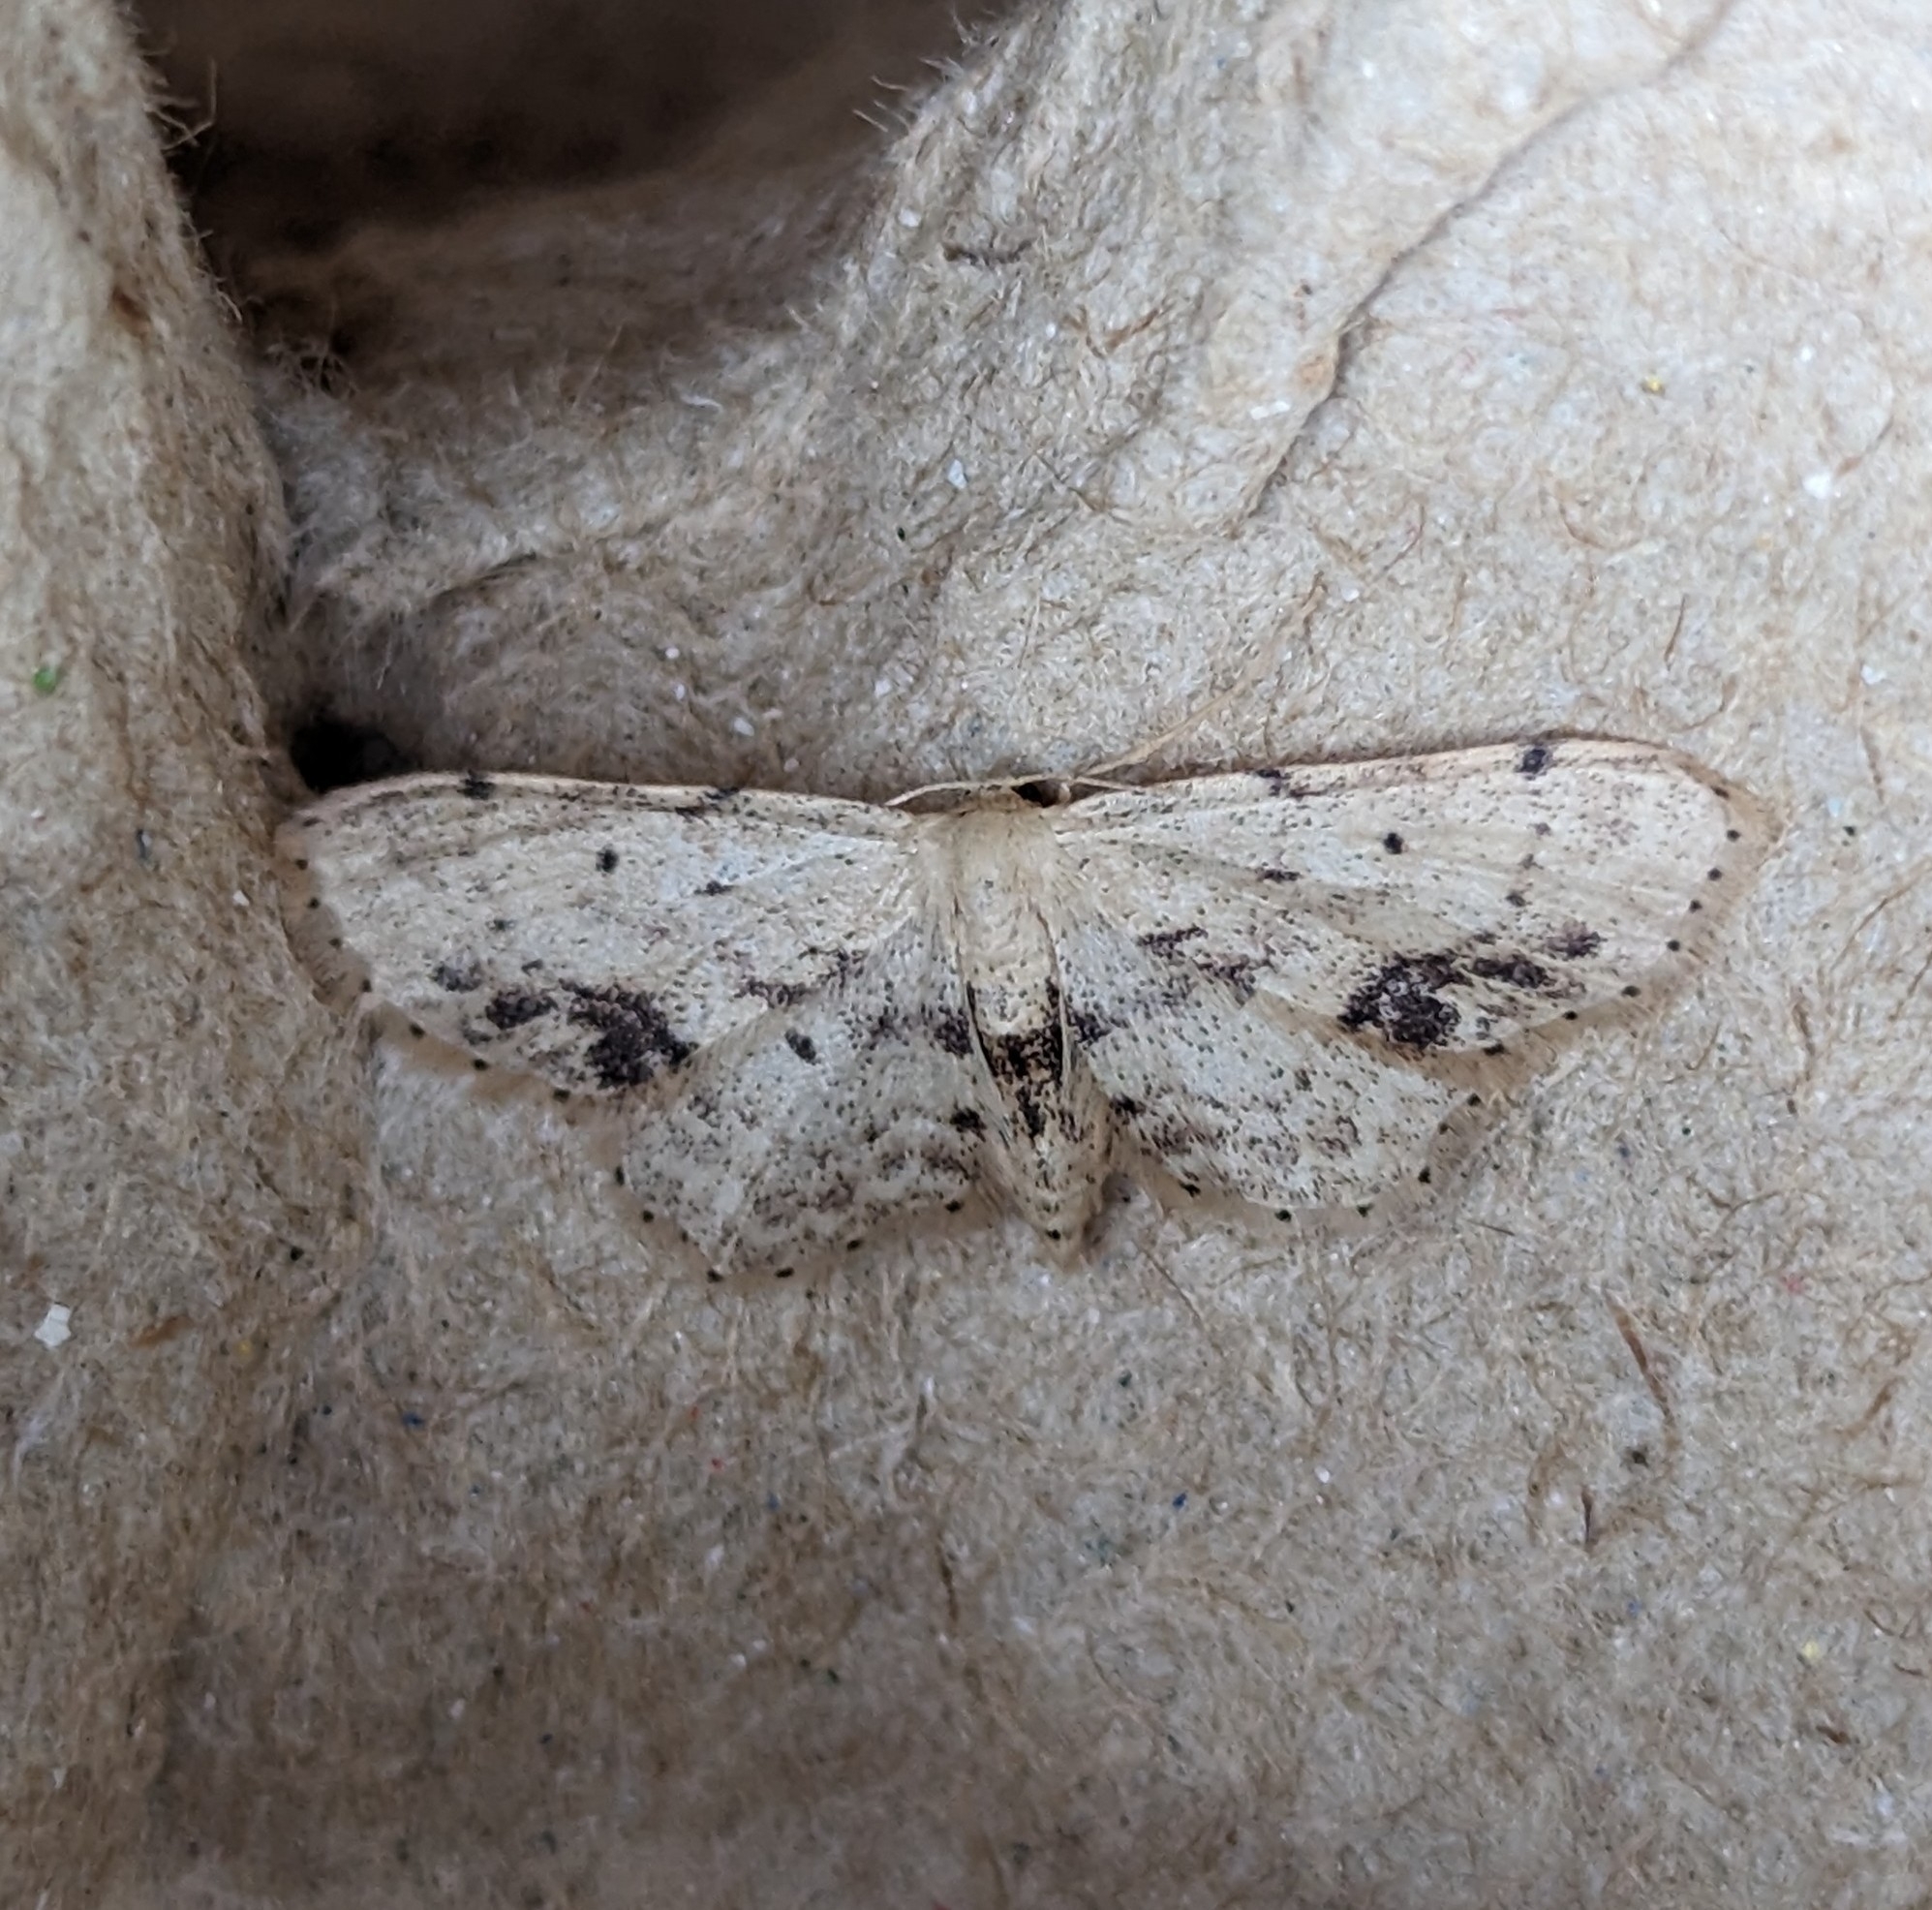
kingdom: Animalia
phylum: Arthropoda
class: Insecta
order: Lepidoptera
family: Geometridae
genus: Idaea
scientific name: Idaea dimidiata
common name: Single-dotted wave
